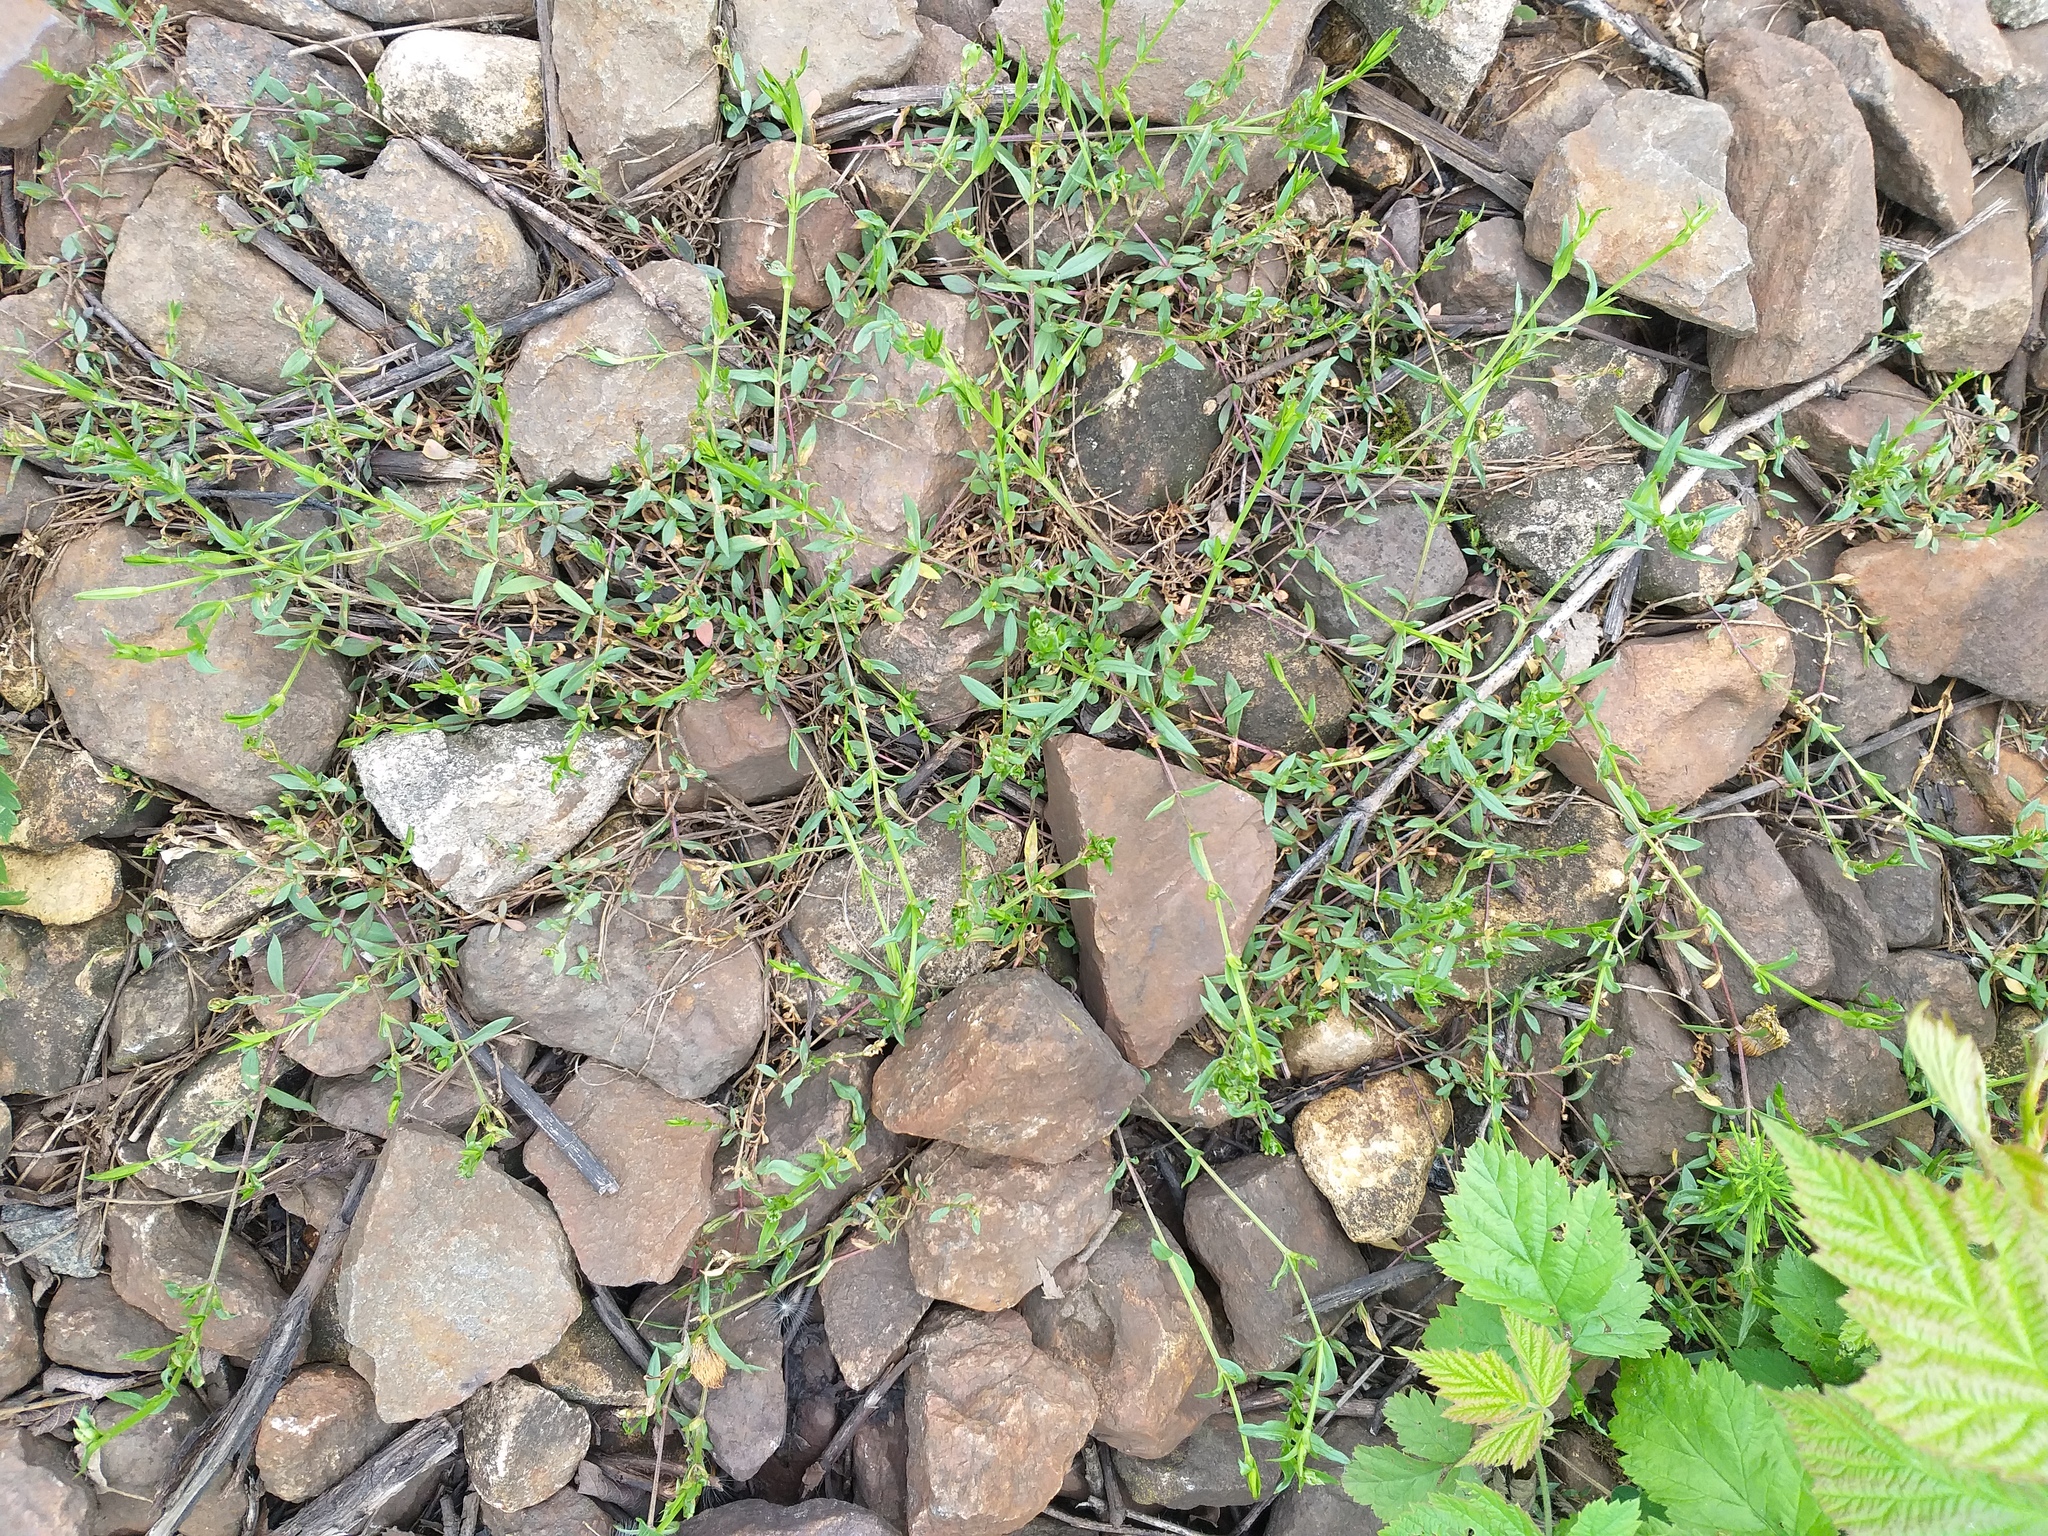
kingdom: Plantae
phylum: Tracheophyta
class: Magnoliopsida
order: Caryophyllales
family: Caryophyllaceae
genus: Stellaria
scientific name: Stellaria graminea
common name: Grass-like starwort
